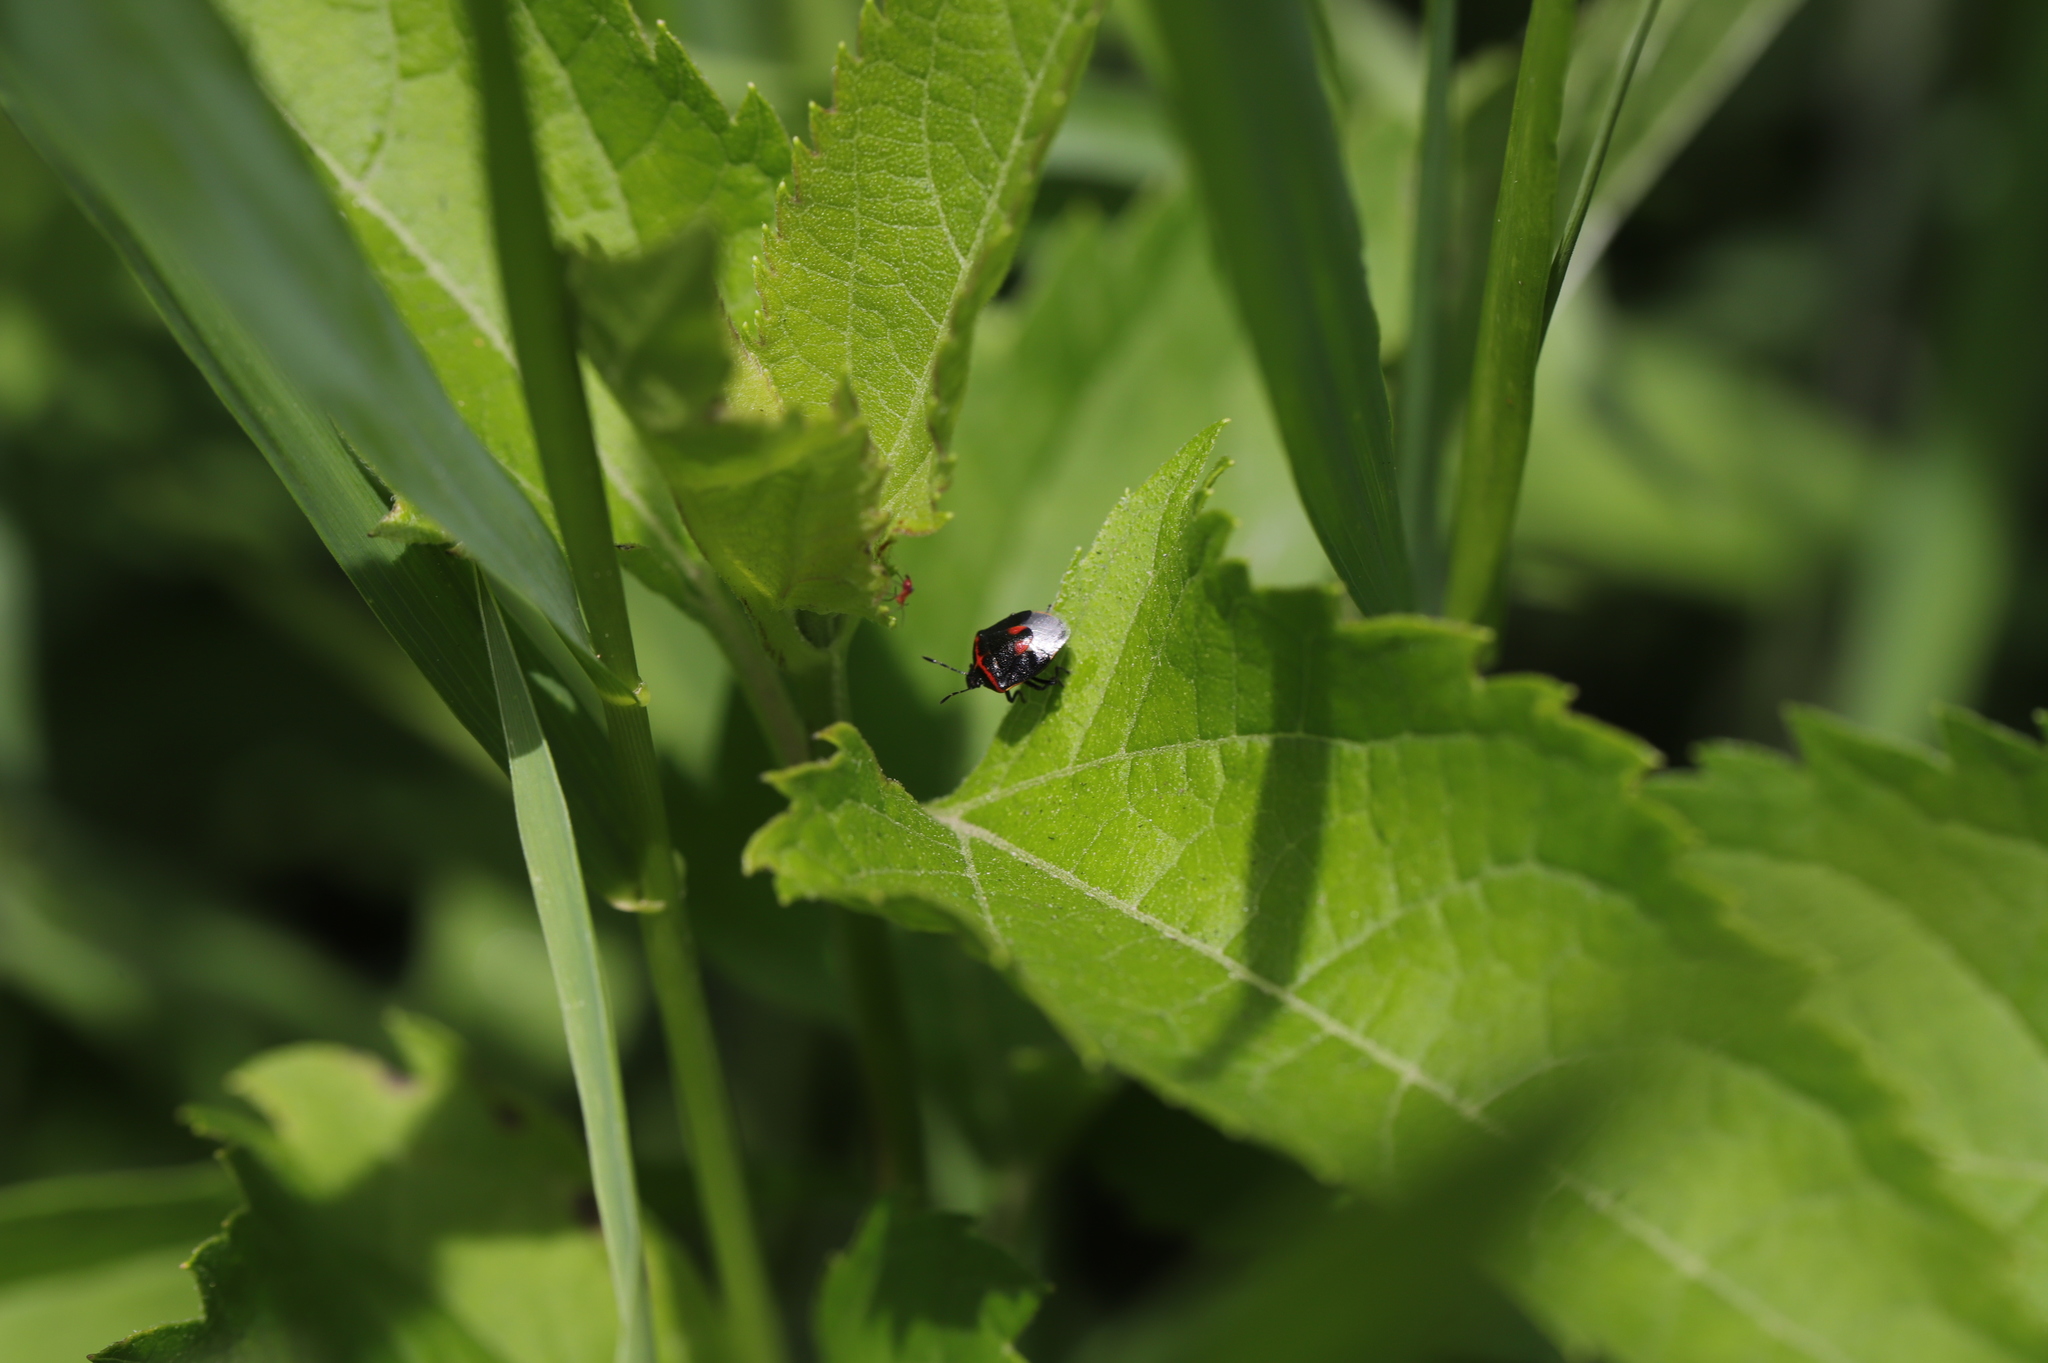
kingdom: Animalia
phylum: Arthropoda
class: Insecta
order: Hemiptera
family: Pentatomidae
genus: Cosmopepla
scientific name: Cosmopepla lintneriana
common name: Twice-stabbed stink bug
